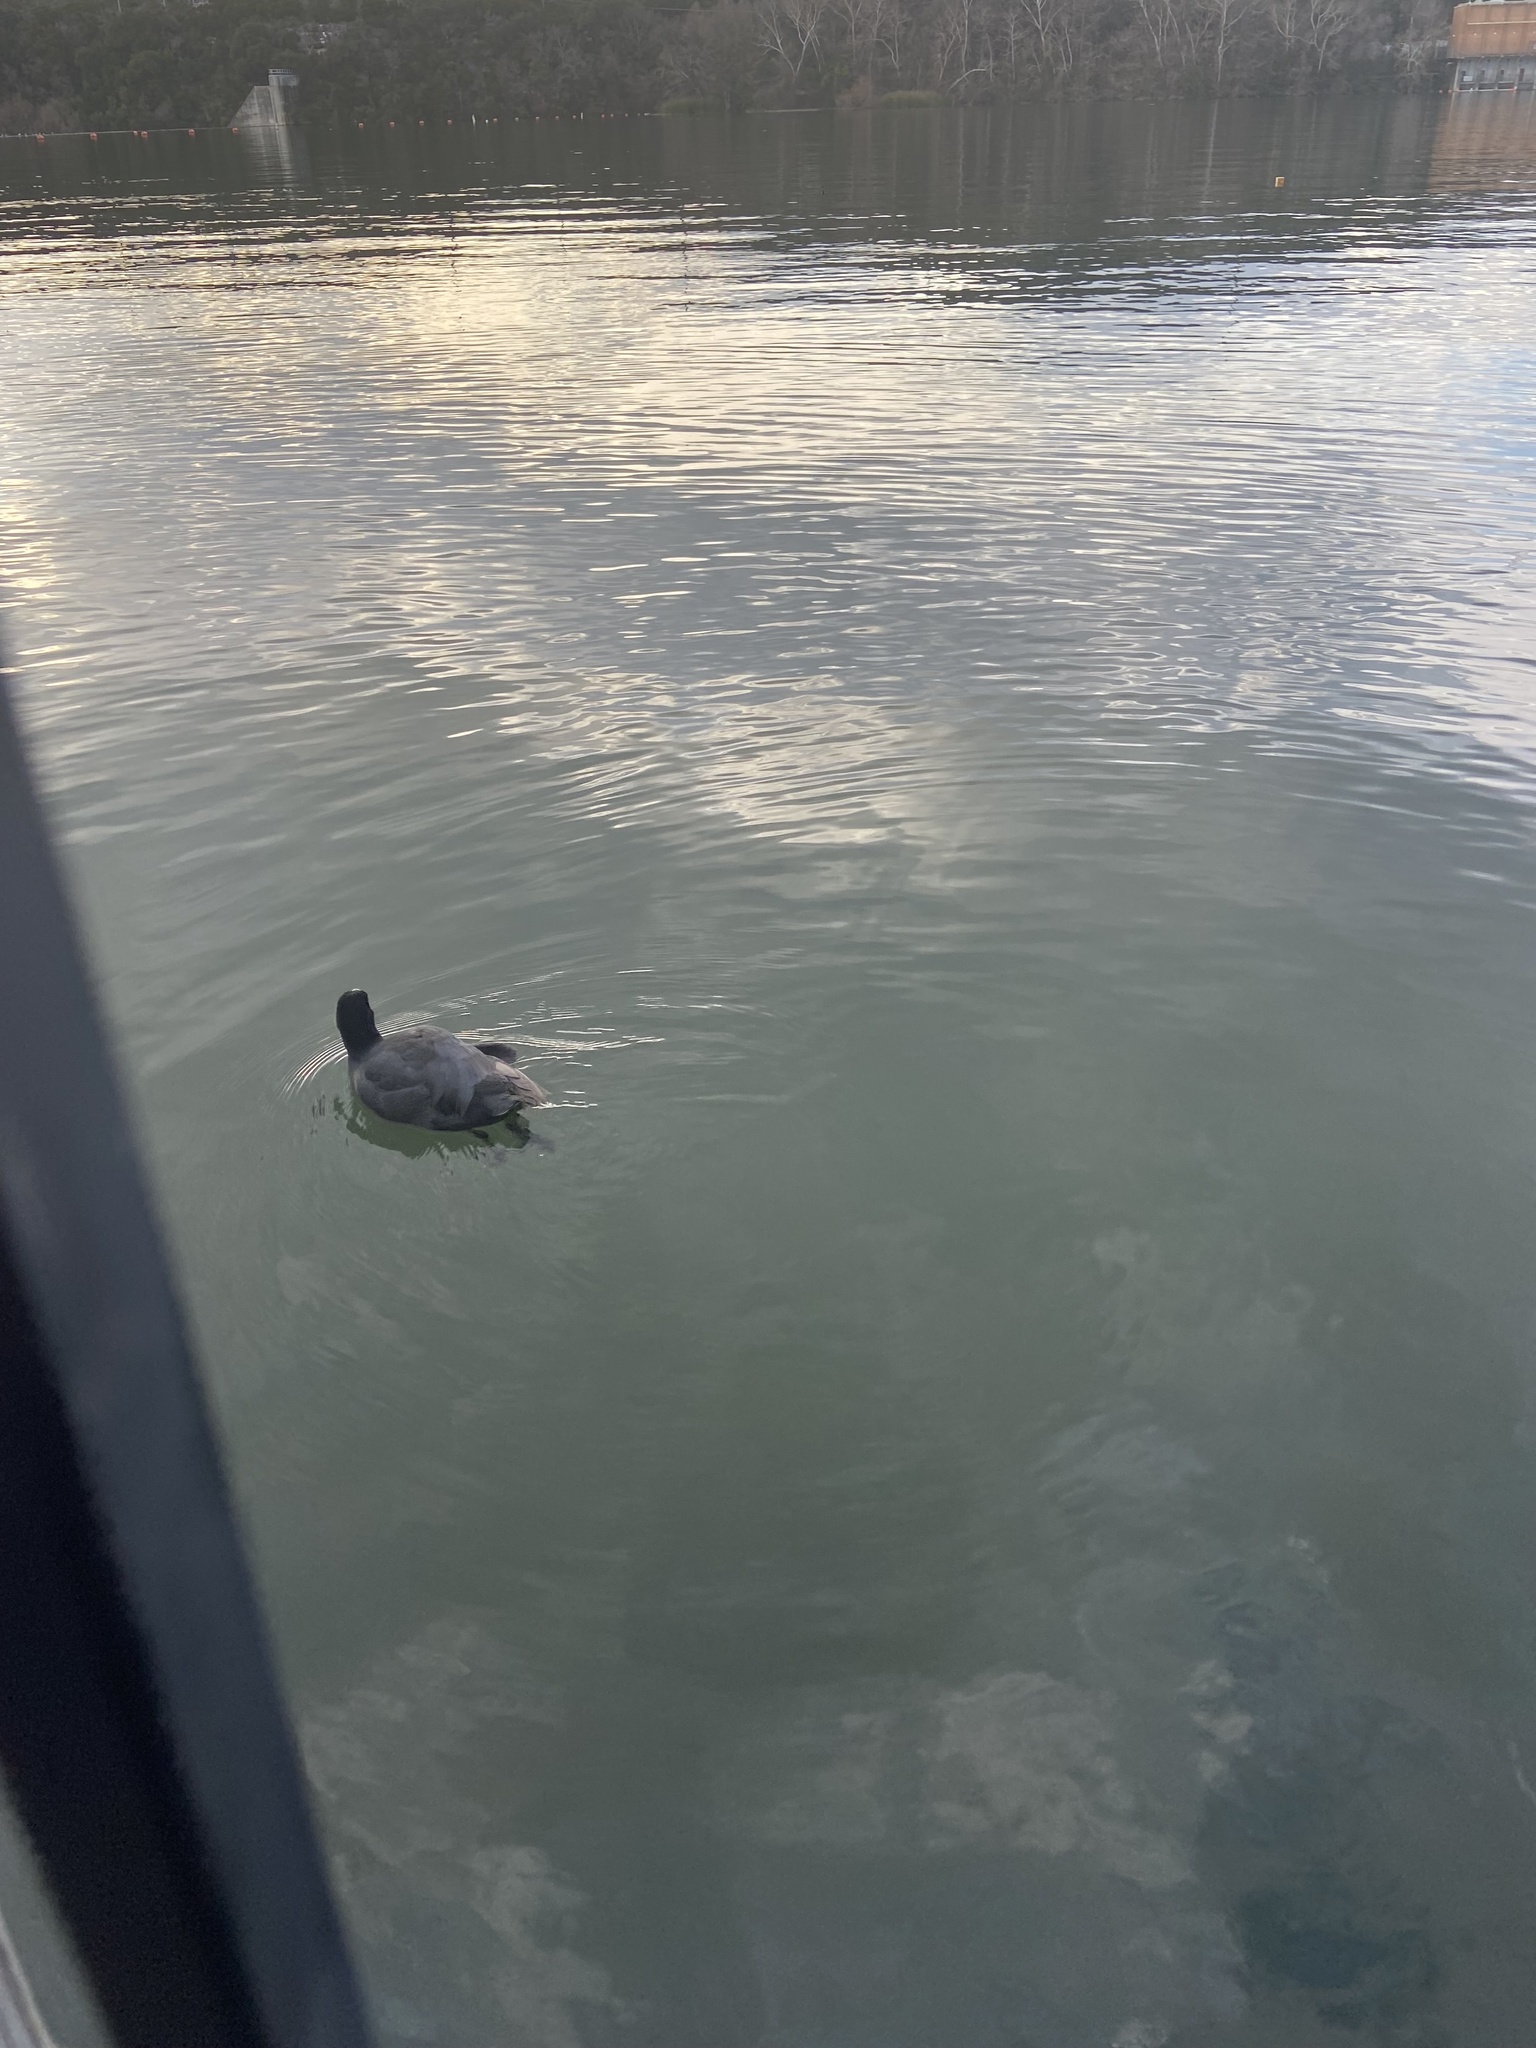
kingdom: Animalia
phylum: Chordata
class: Aves
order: Gruiformes
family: Rallidae
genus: Fulica
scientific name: Fulica americana
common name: American coot
